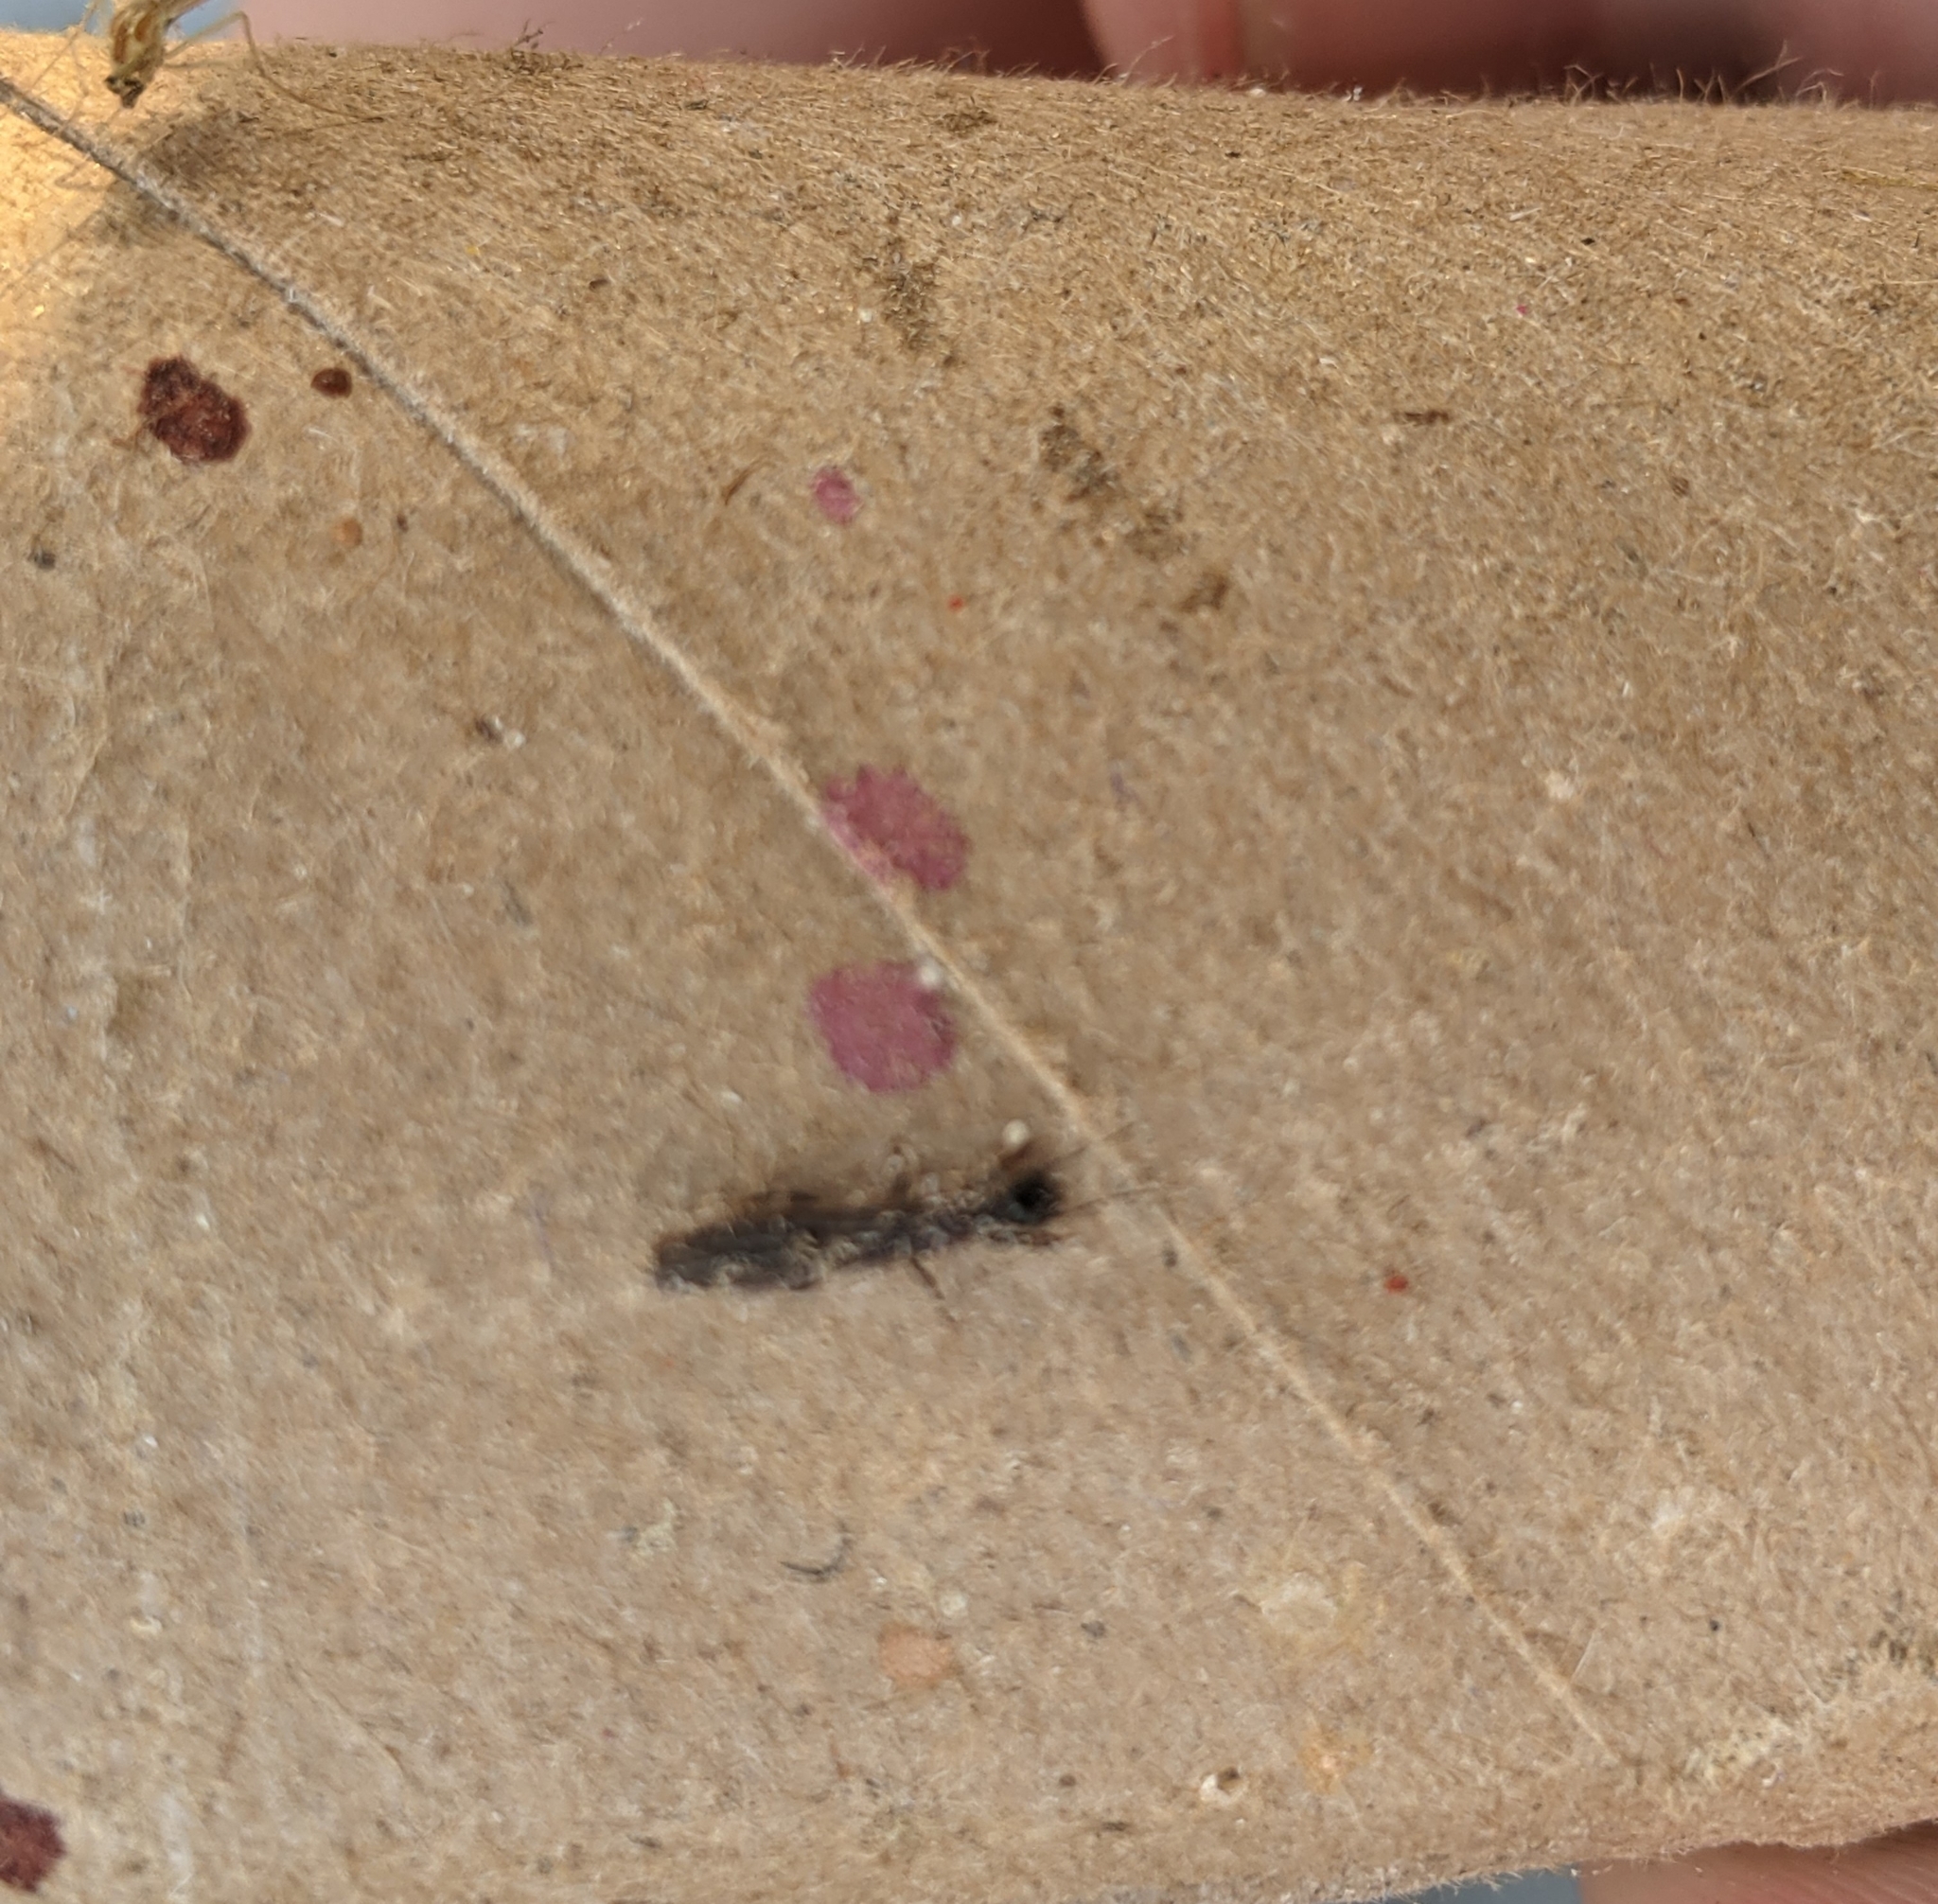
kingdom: Animalia
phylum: Arthropoda
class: Insecta
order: Embioptera
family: Oligotomidae
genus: Oligotoma
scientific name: Oligotoma nigra
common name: Black webspinner
